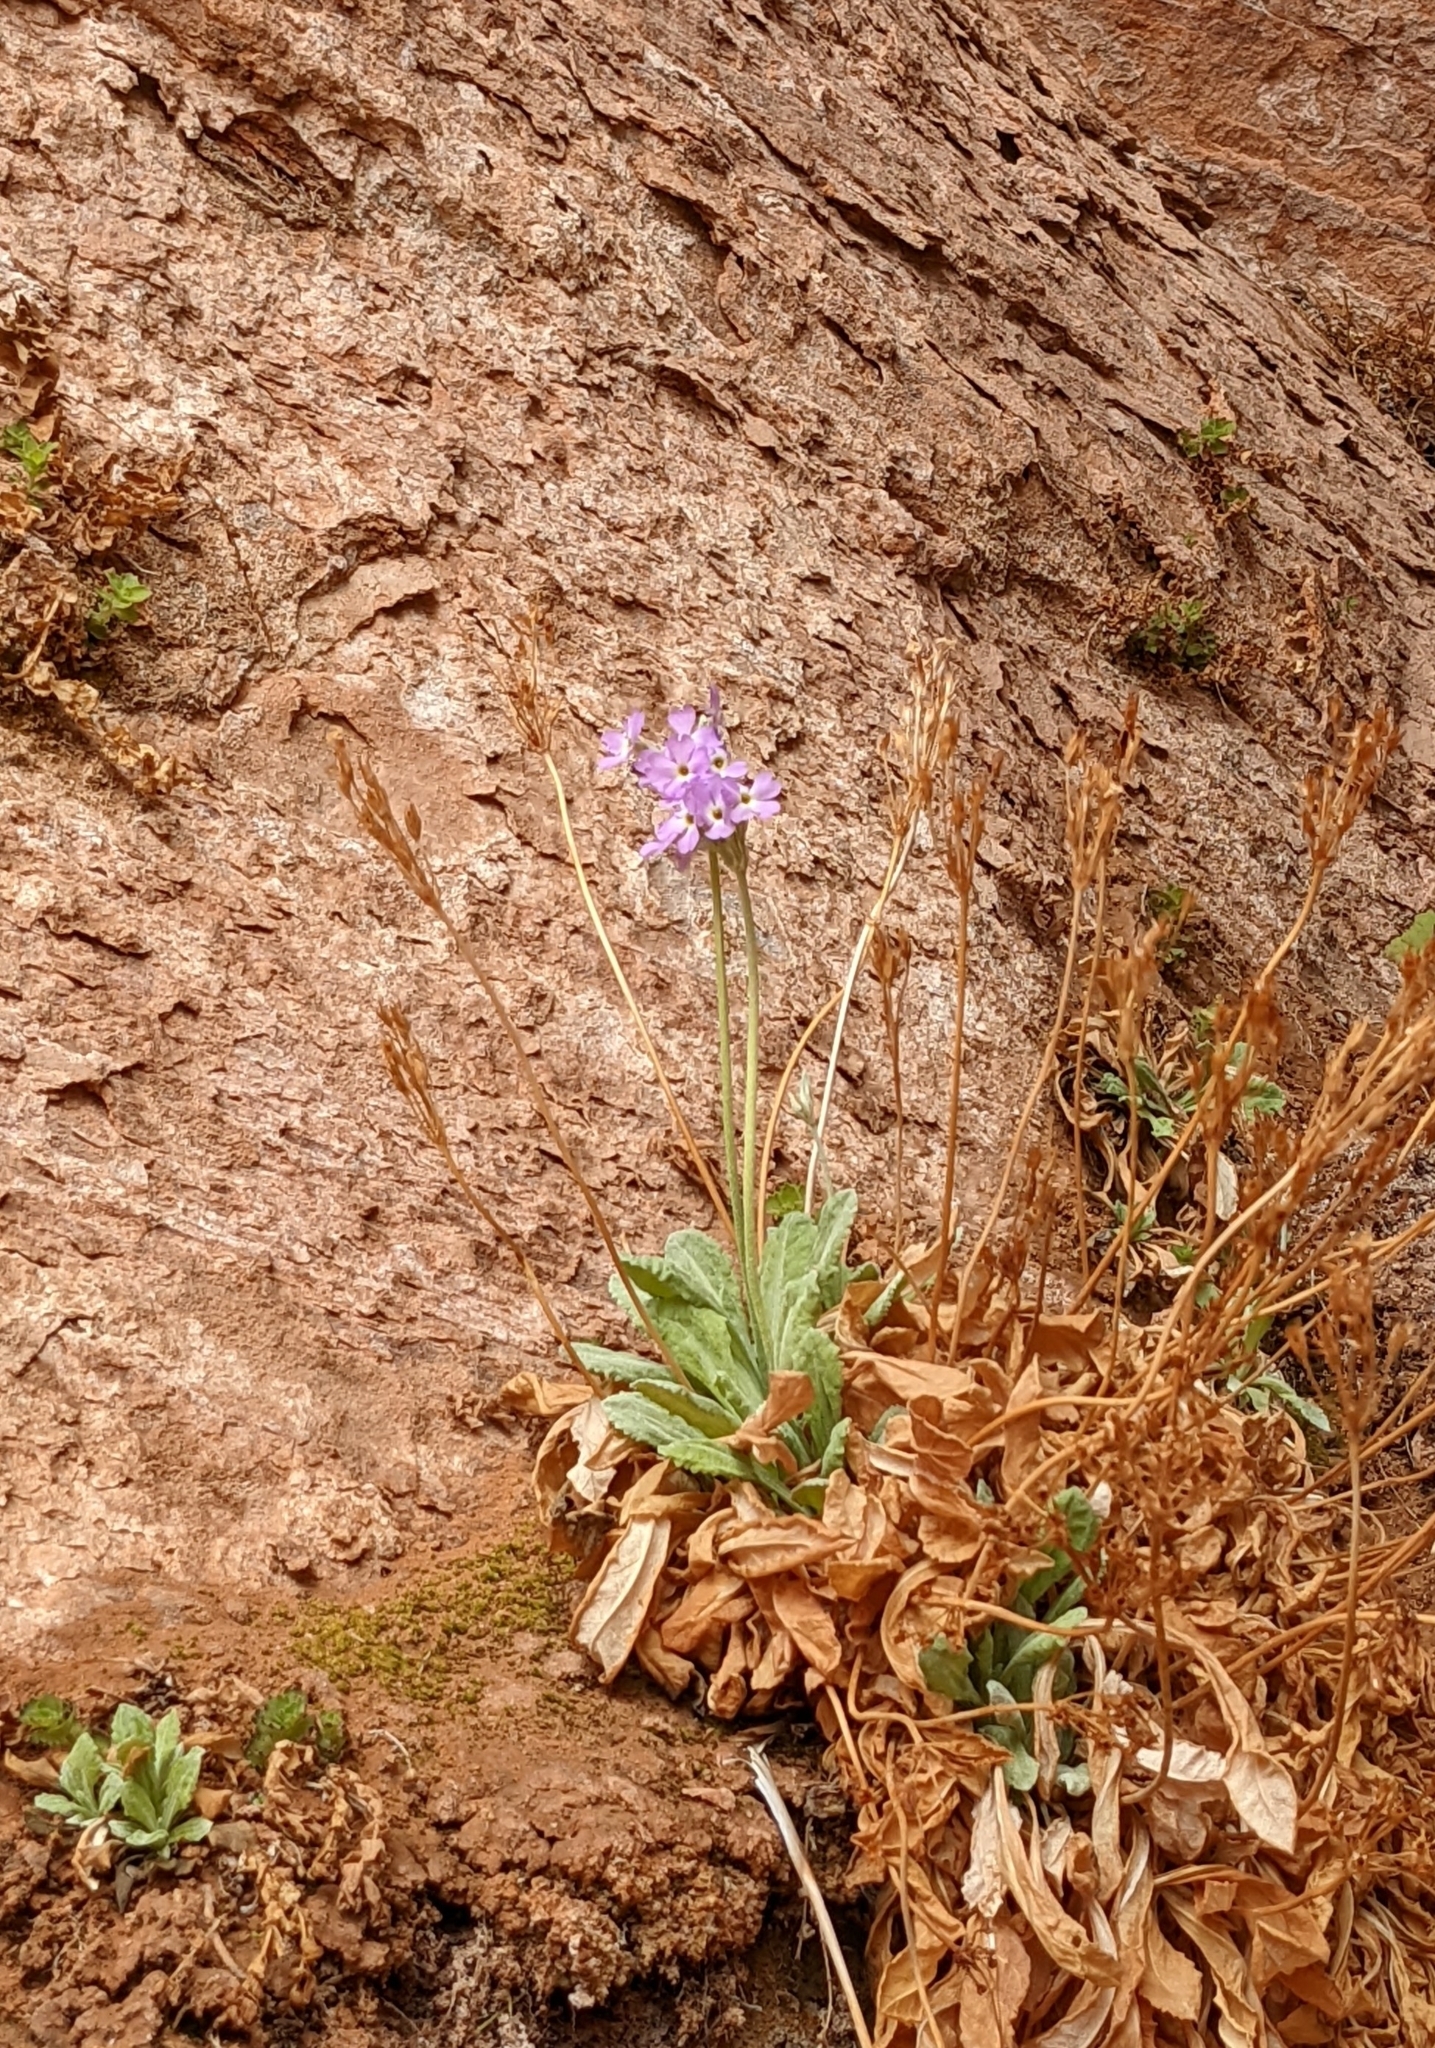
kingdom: Plantae
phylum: Tracheophyta
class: Magnoliopsida
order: Ericales
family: Primulaceae
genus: Primula
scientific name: Primula specuicola
